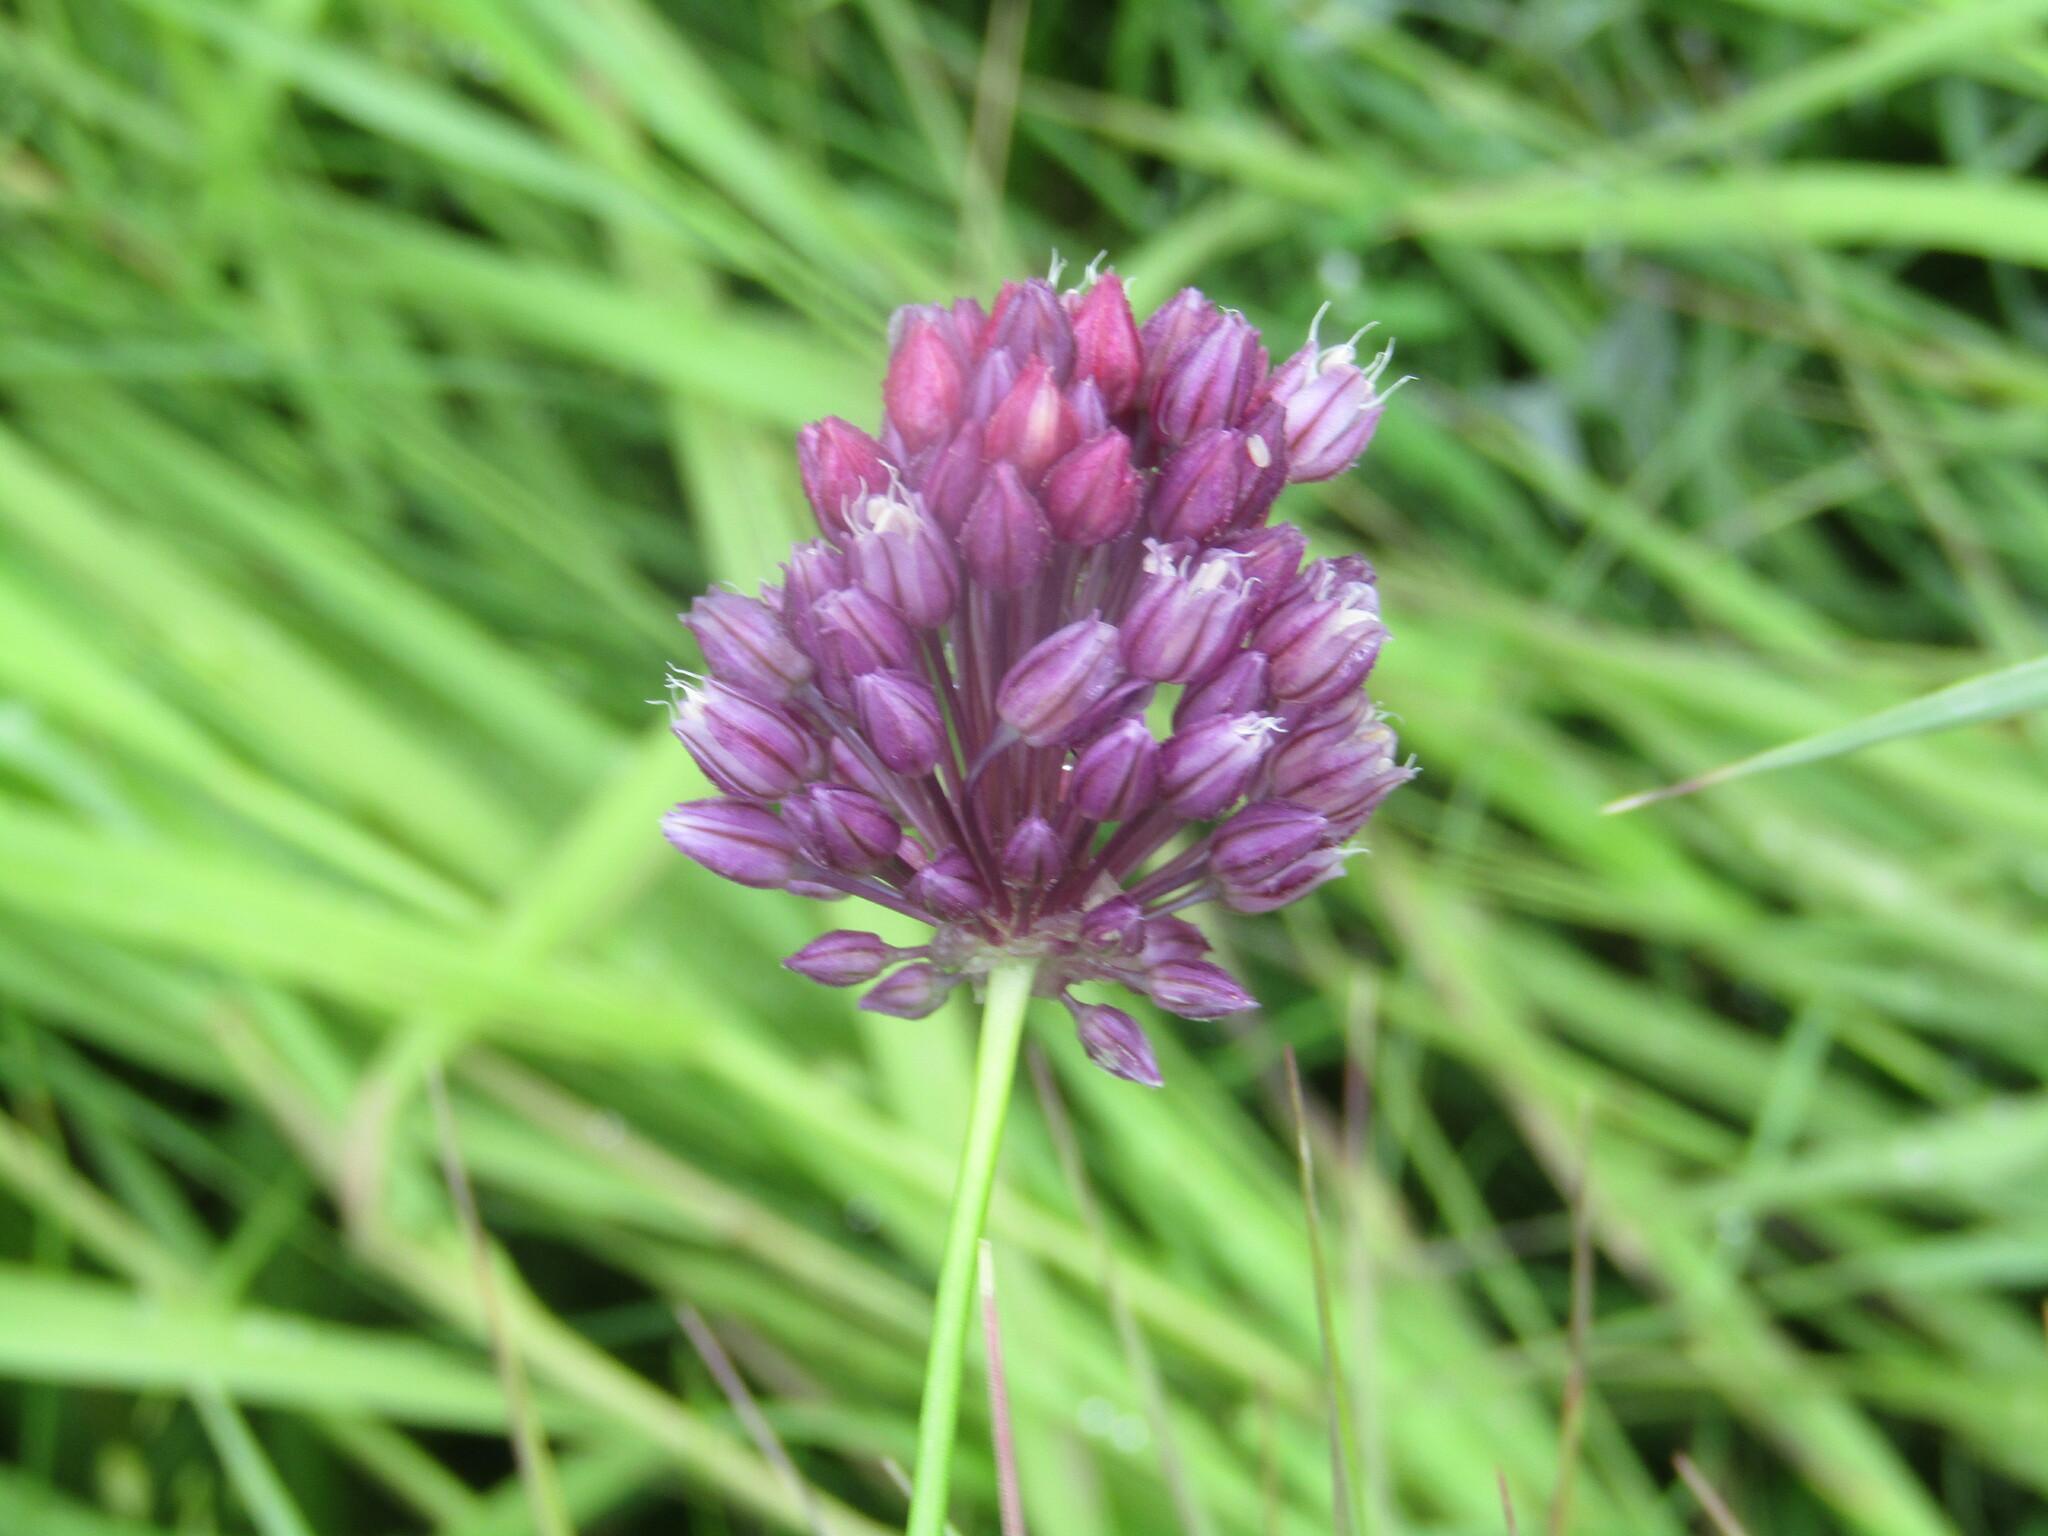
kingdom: Plantae
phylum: Tracheophyta
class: Liliopsida
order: Asparagales
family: Amaryllidaceae
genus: Allium
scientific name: Allium rotundum
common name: Sand leek
